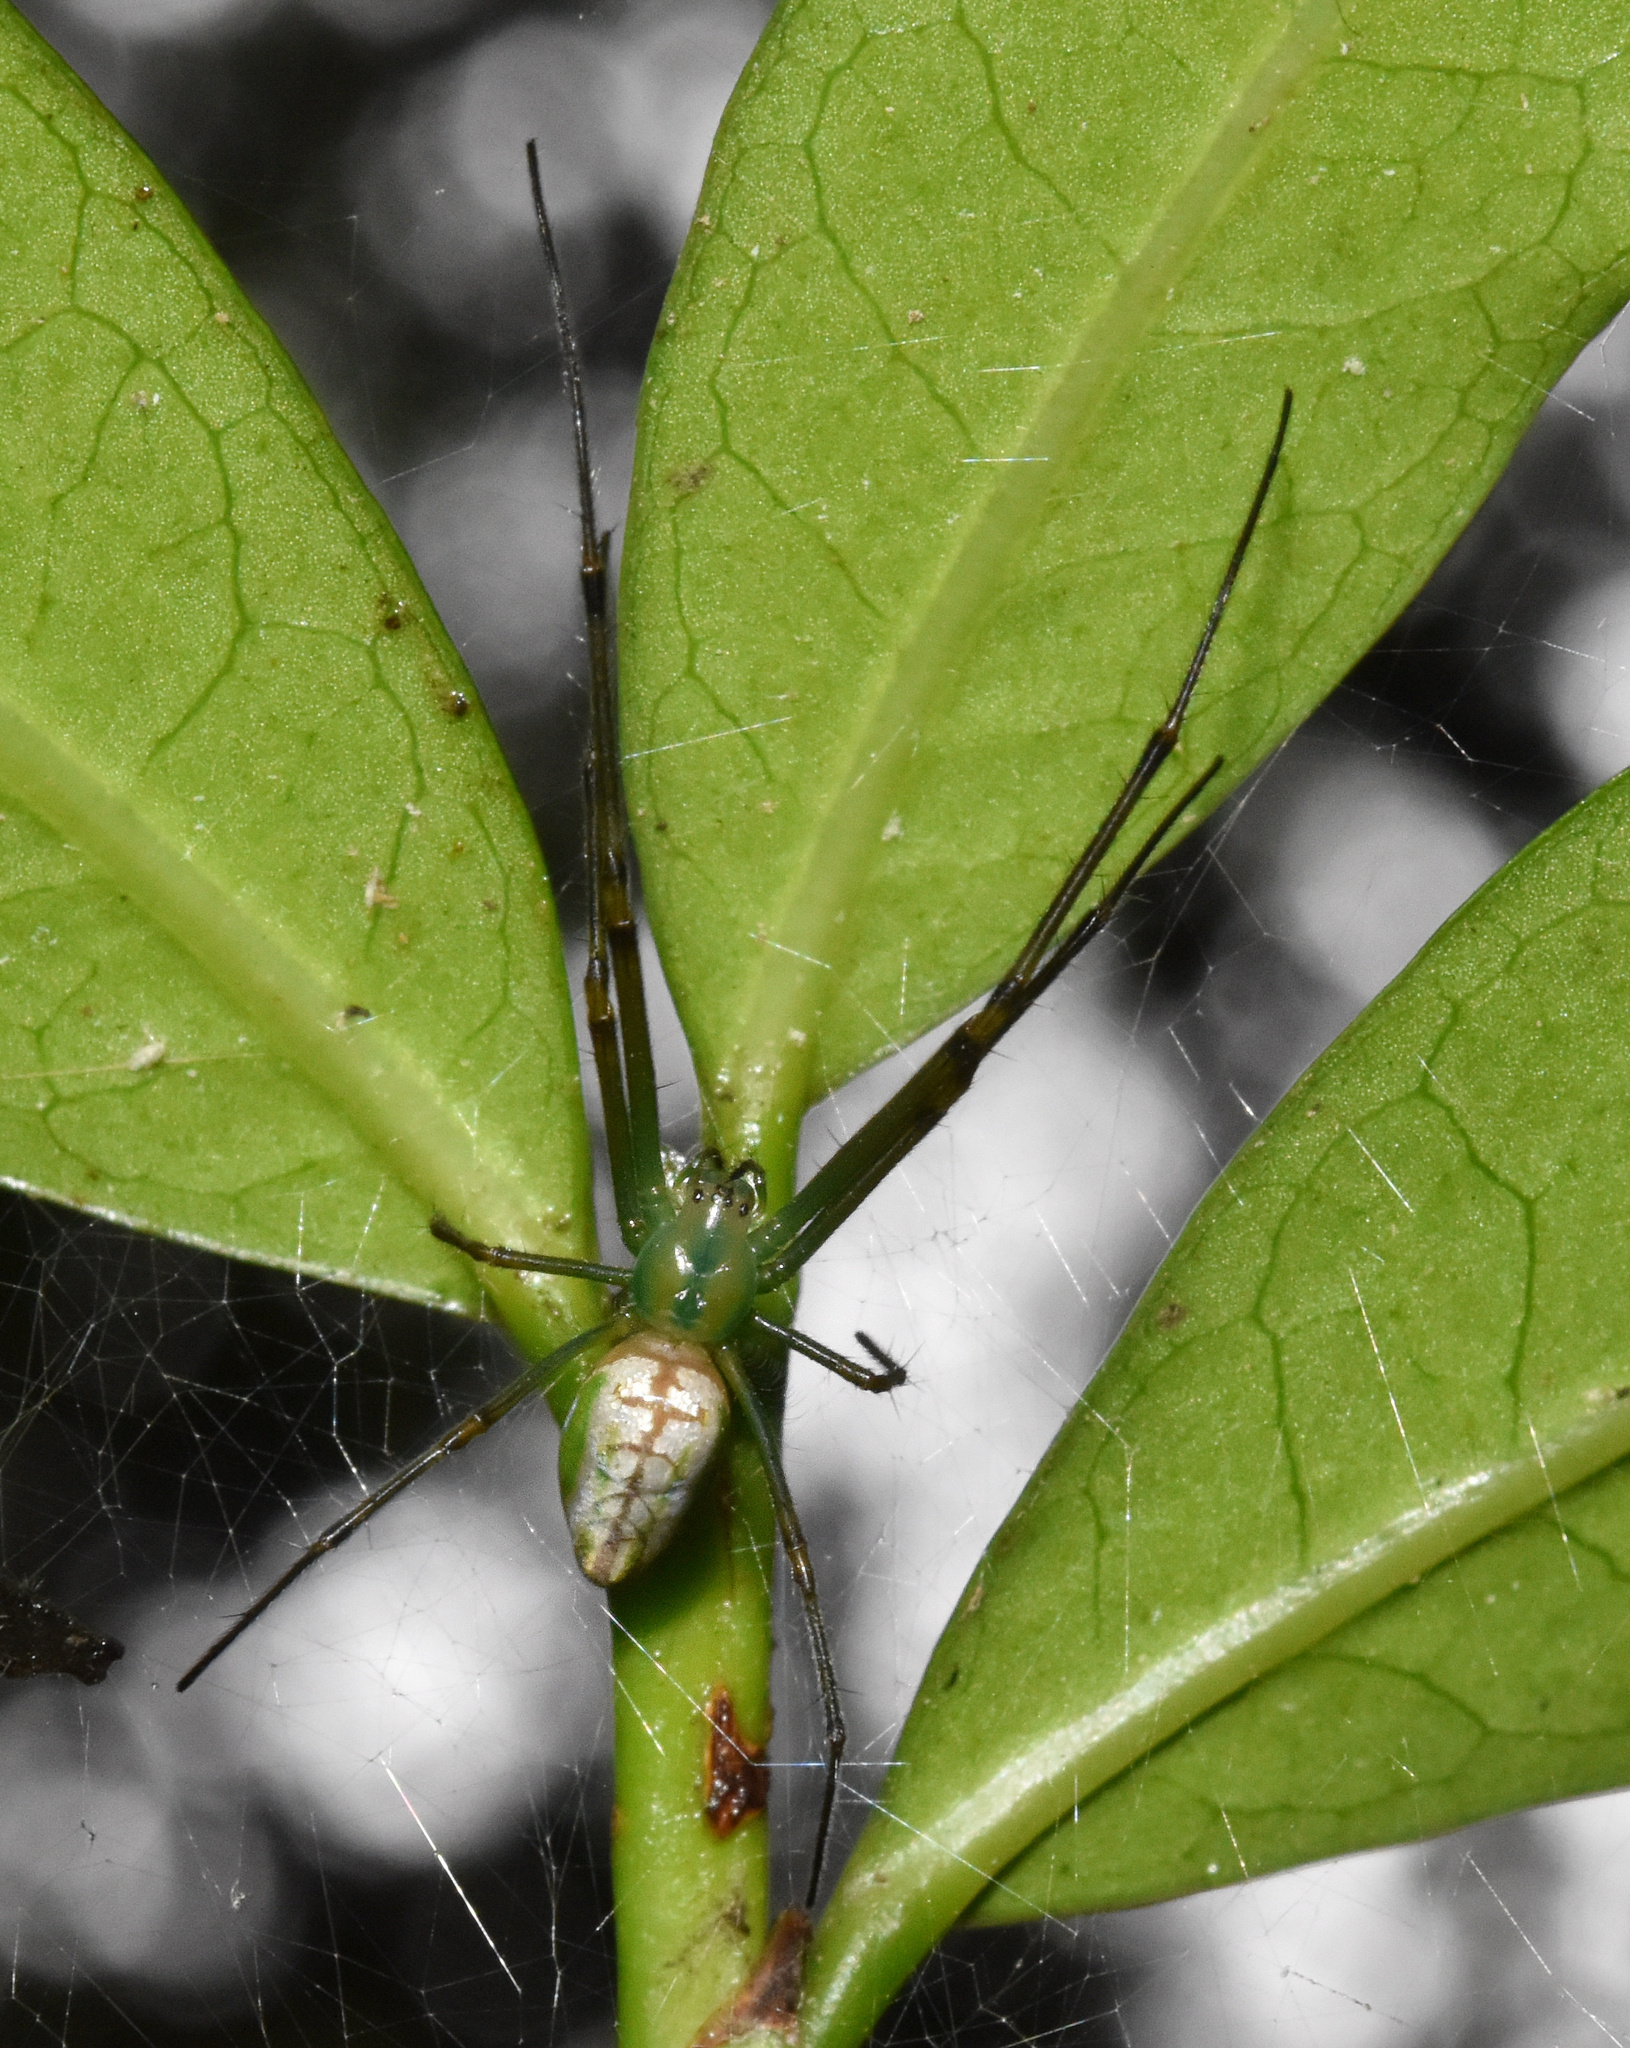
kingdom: Animalia
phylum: Arthropoda
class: Arachnida
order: Araneae
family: Tetragnathidae
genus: Leucauge
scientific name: Leucauge auronotum
